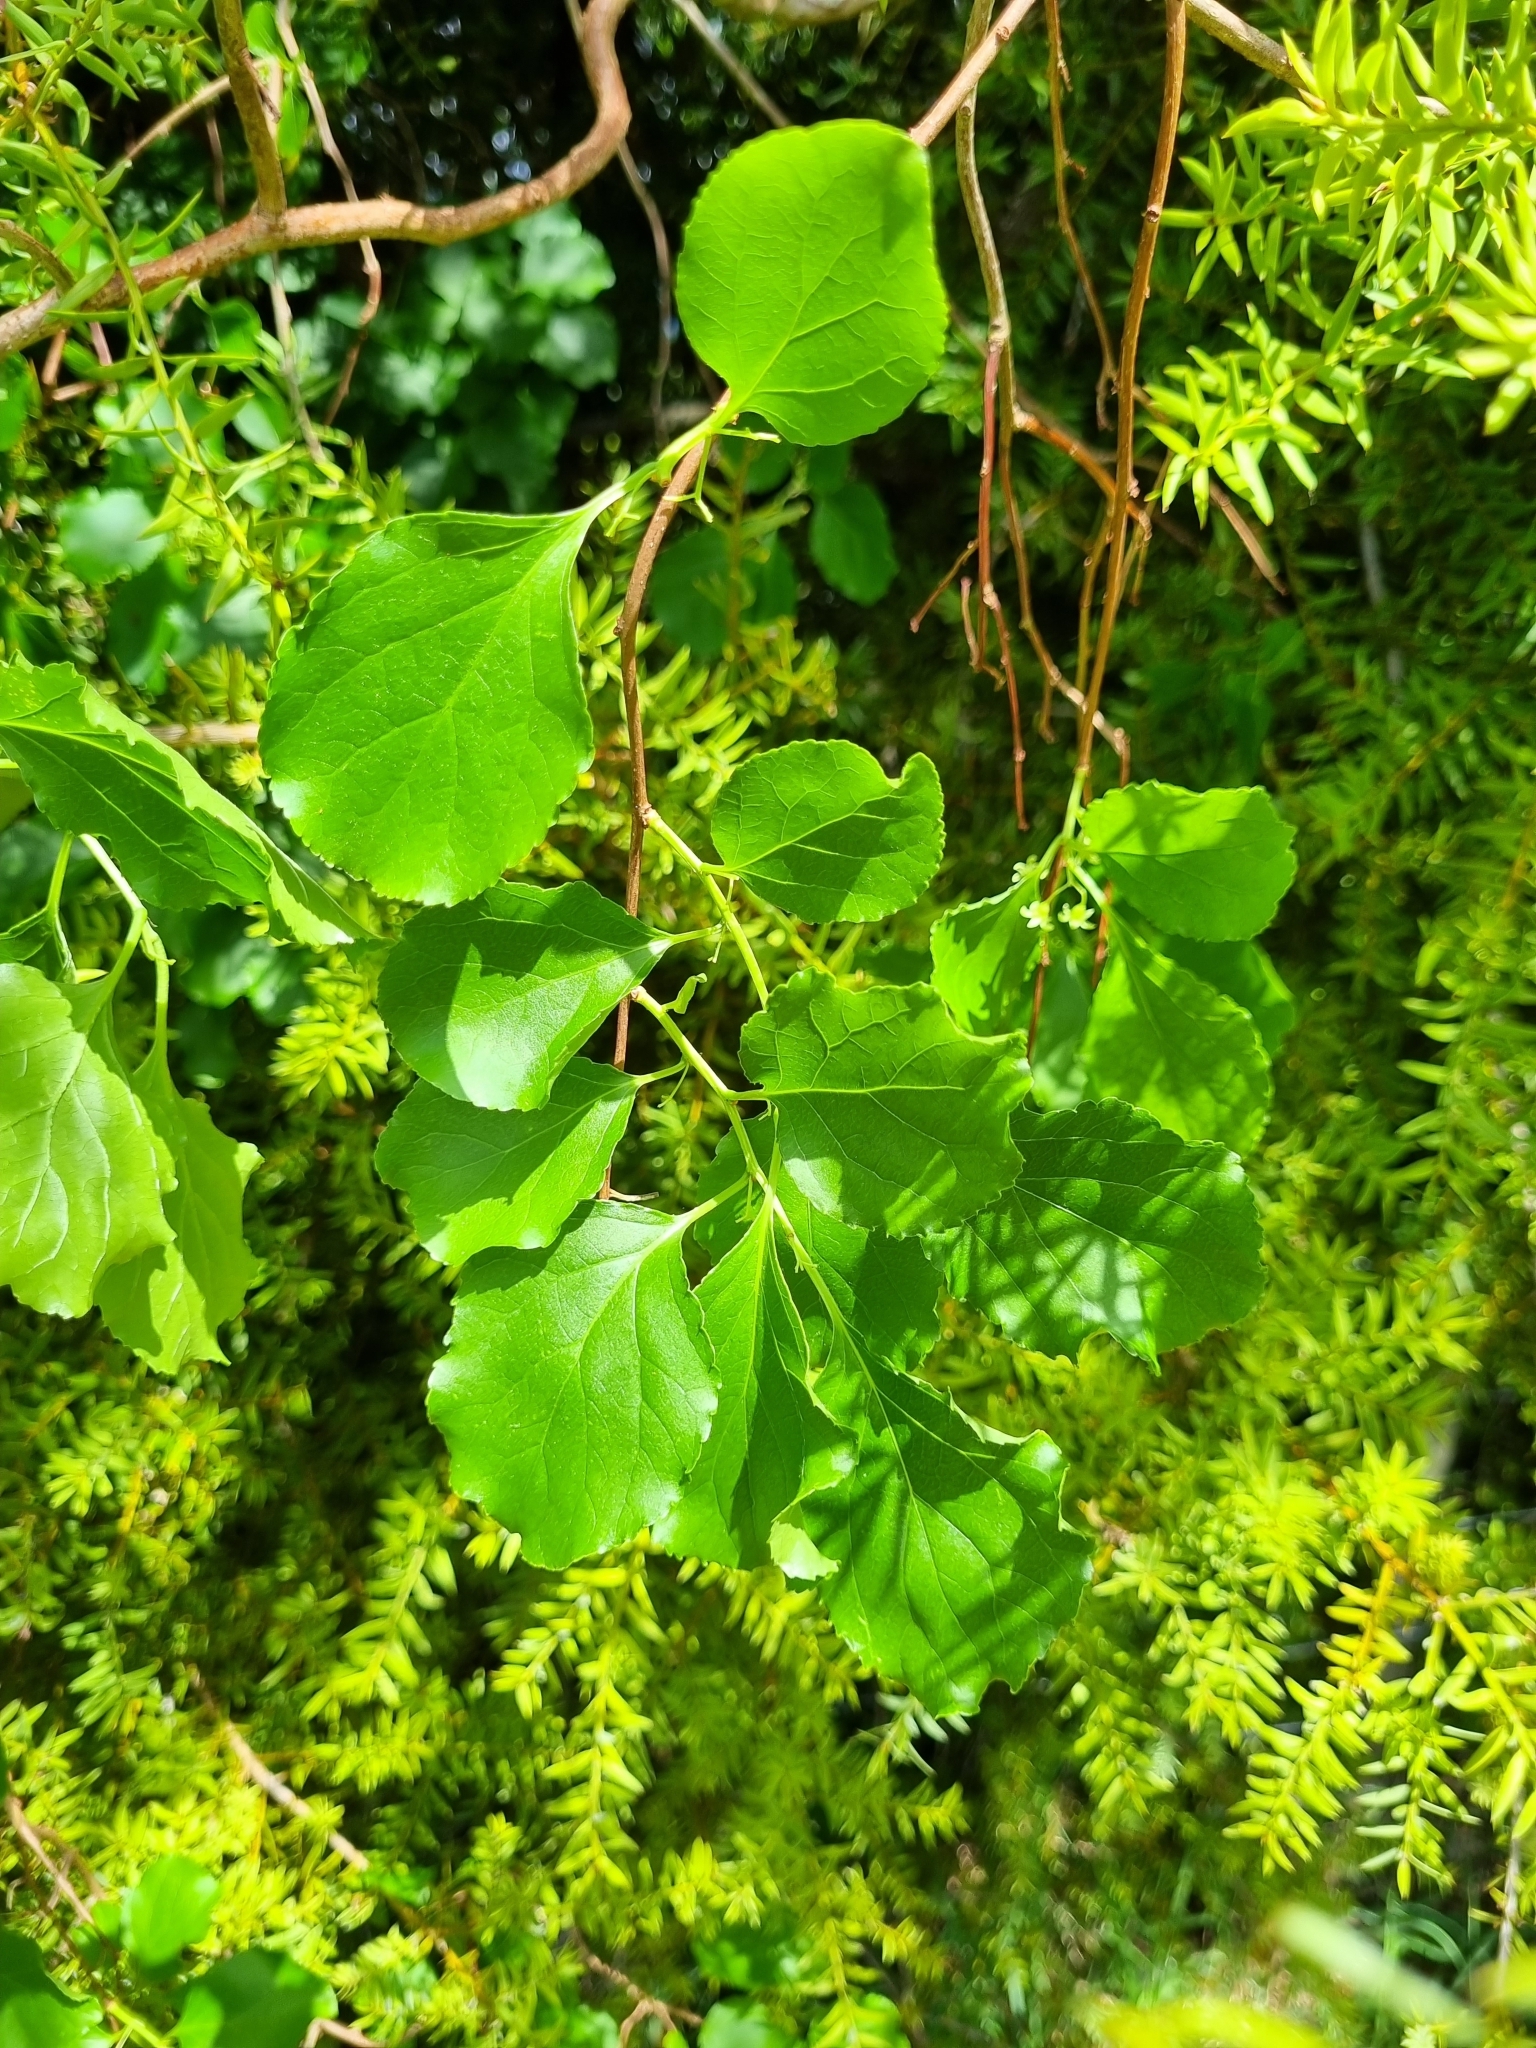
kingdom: Plantae
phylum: Tracheophyta
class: Magnoliopsida
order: Celastrales
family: Celastraceae
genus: Celastrus
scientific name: Celastrus orbiculatus
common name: Oriental bittersweet
